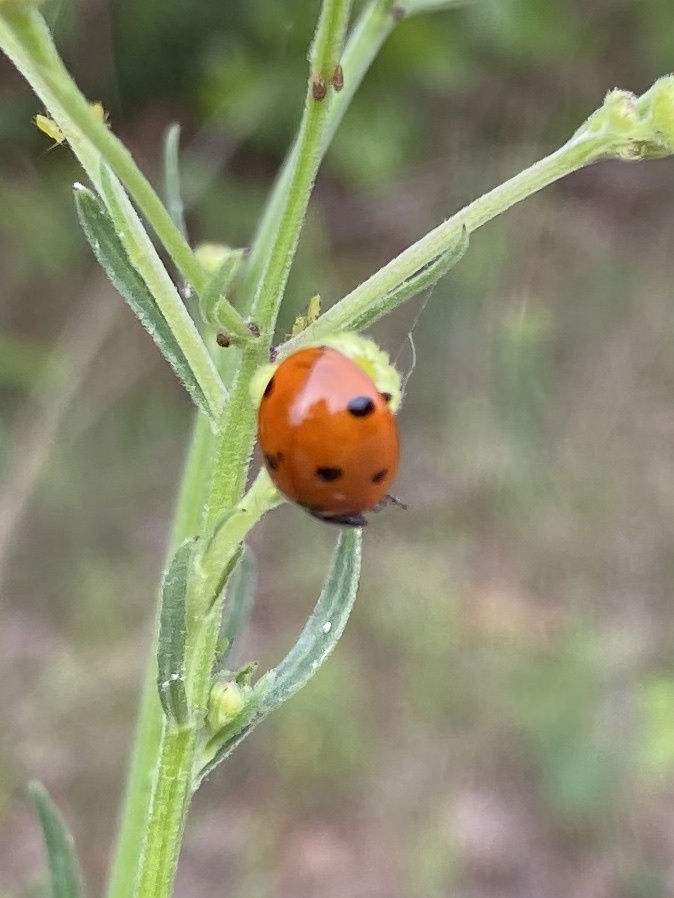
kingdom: Animalia
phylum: Arthropoda
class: Insecta
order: Coleoptera
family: Coccinellidae
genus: Coccinella
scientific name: Coccinella septempunctata
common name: Sevenspotted lady beetle
